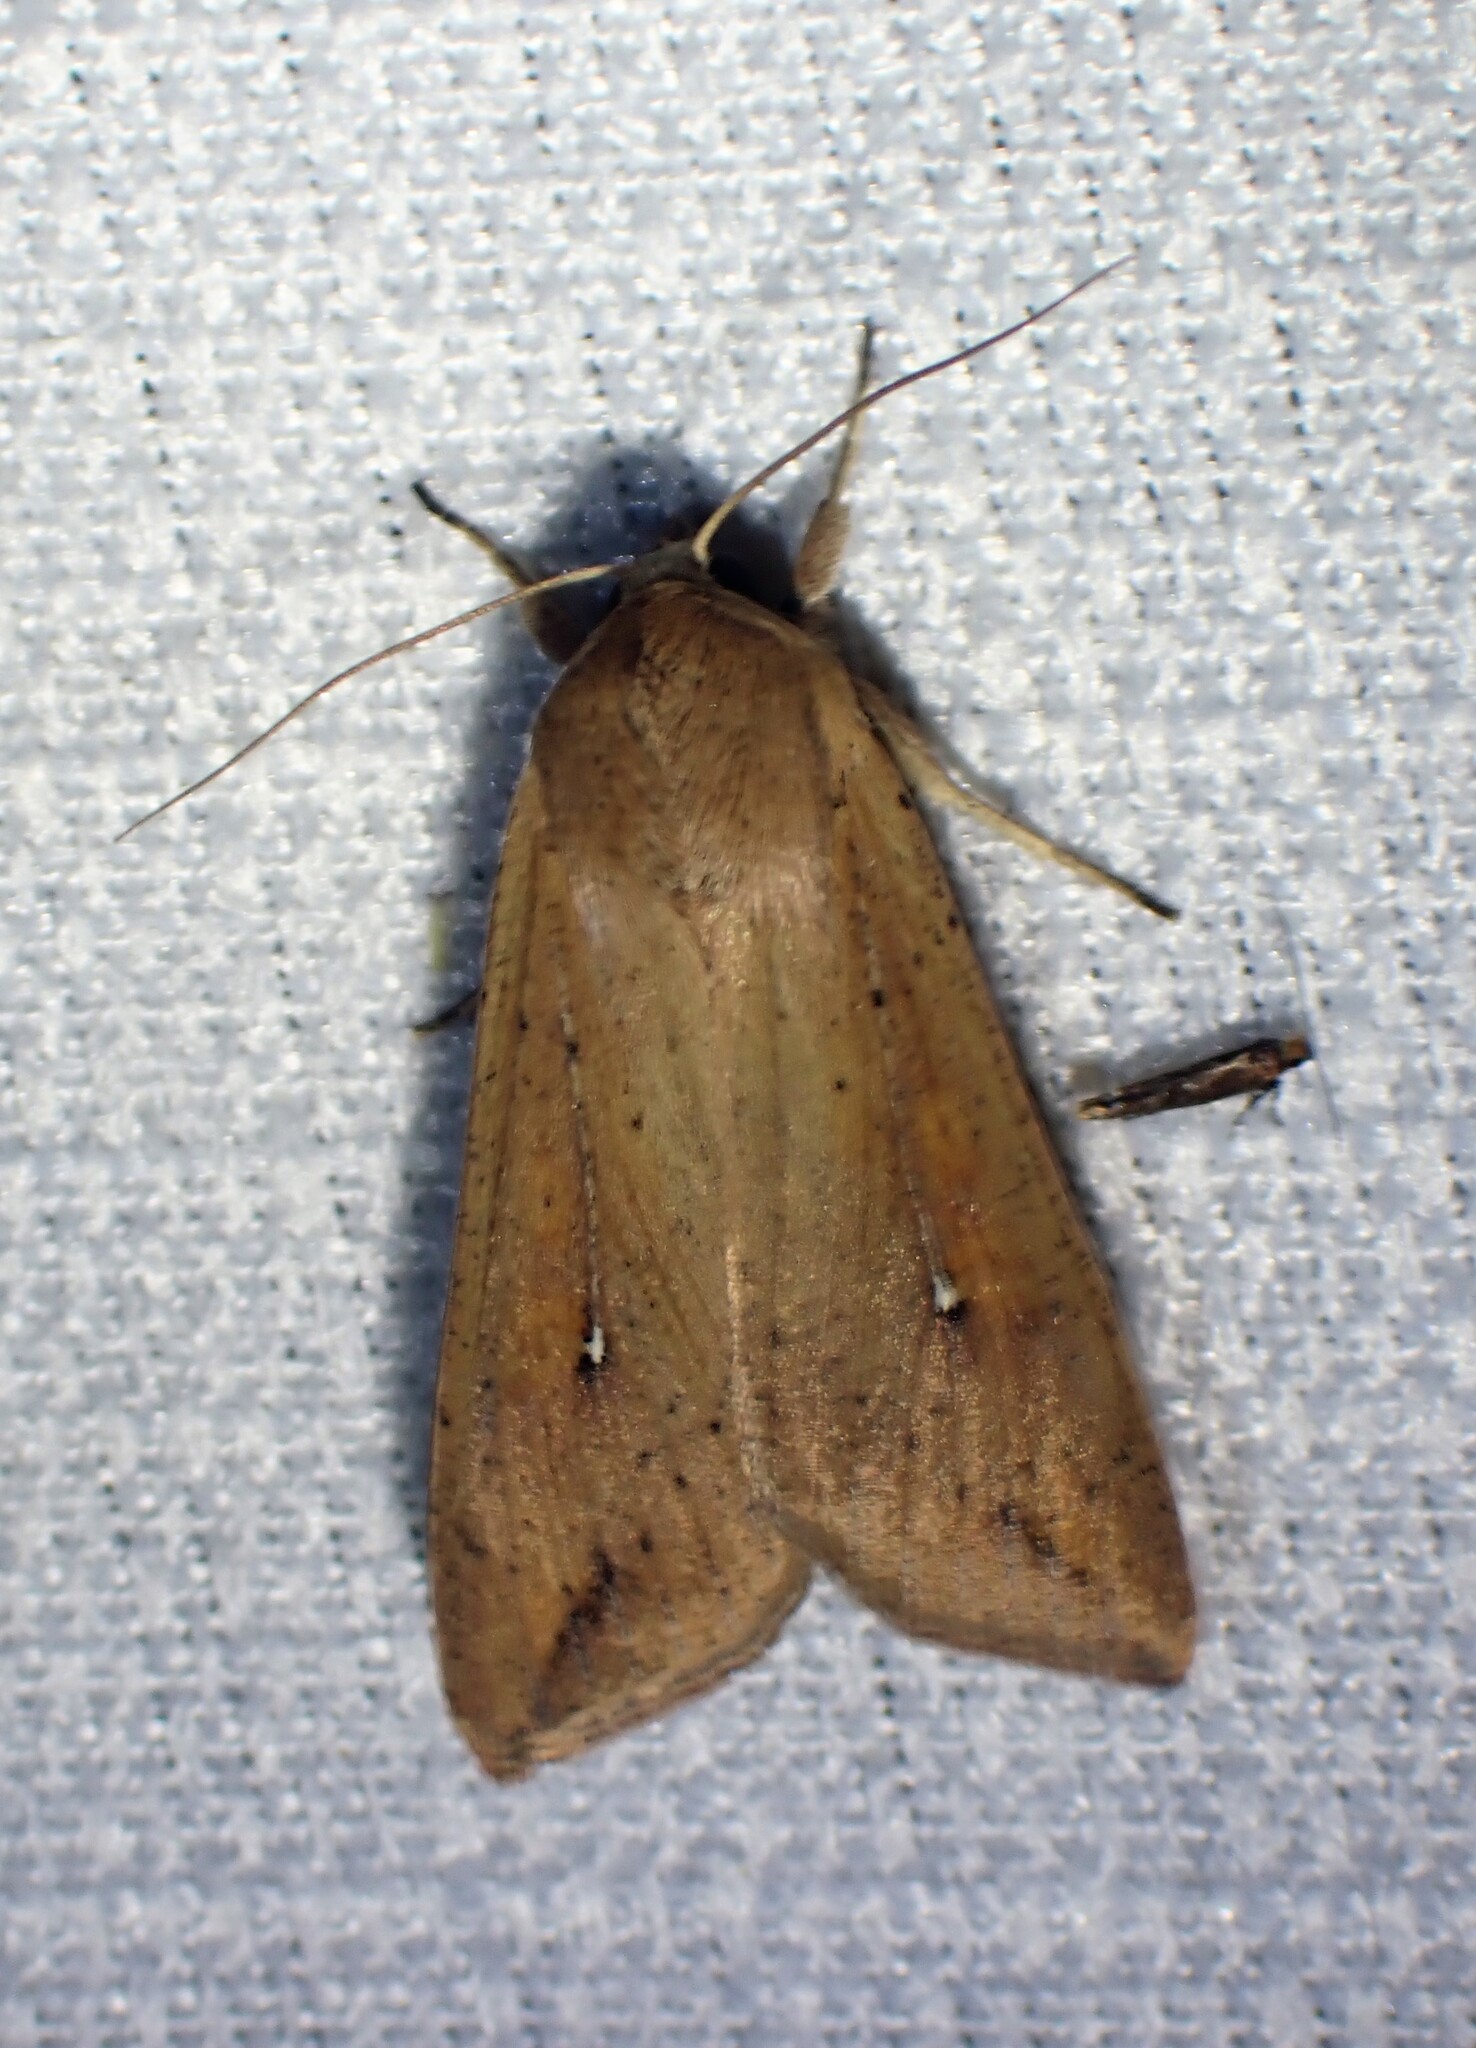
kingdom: Animalia
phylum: Arthropoda
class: Insecta
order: Lepidoptera
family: Noctuidae
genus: Mythimna
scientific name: Mythimna unipuncta
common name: White-speck
